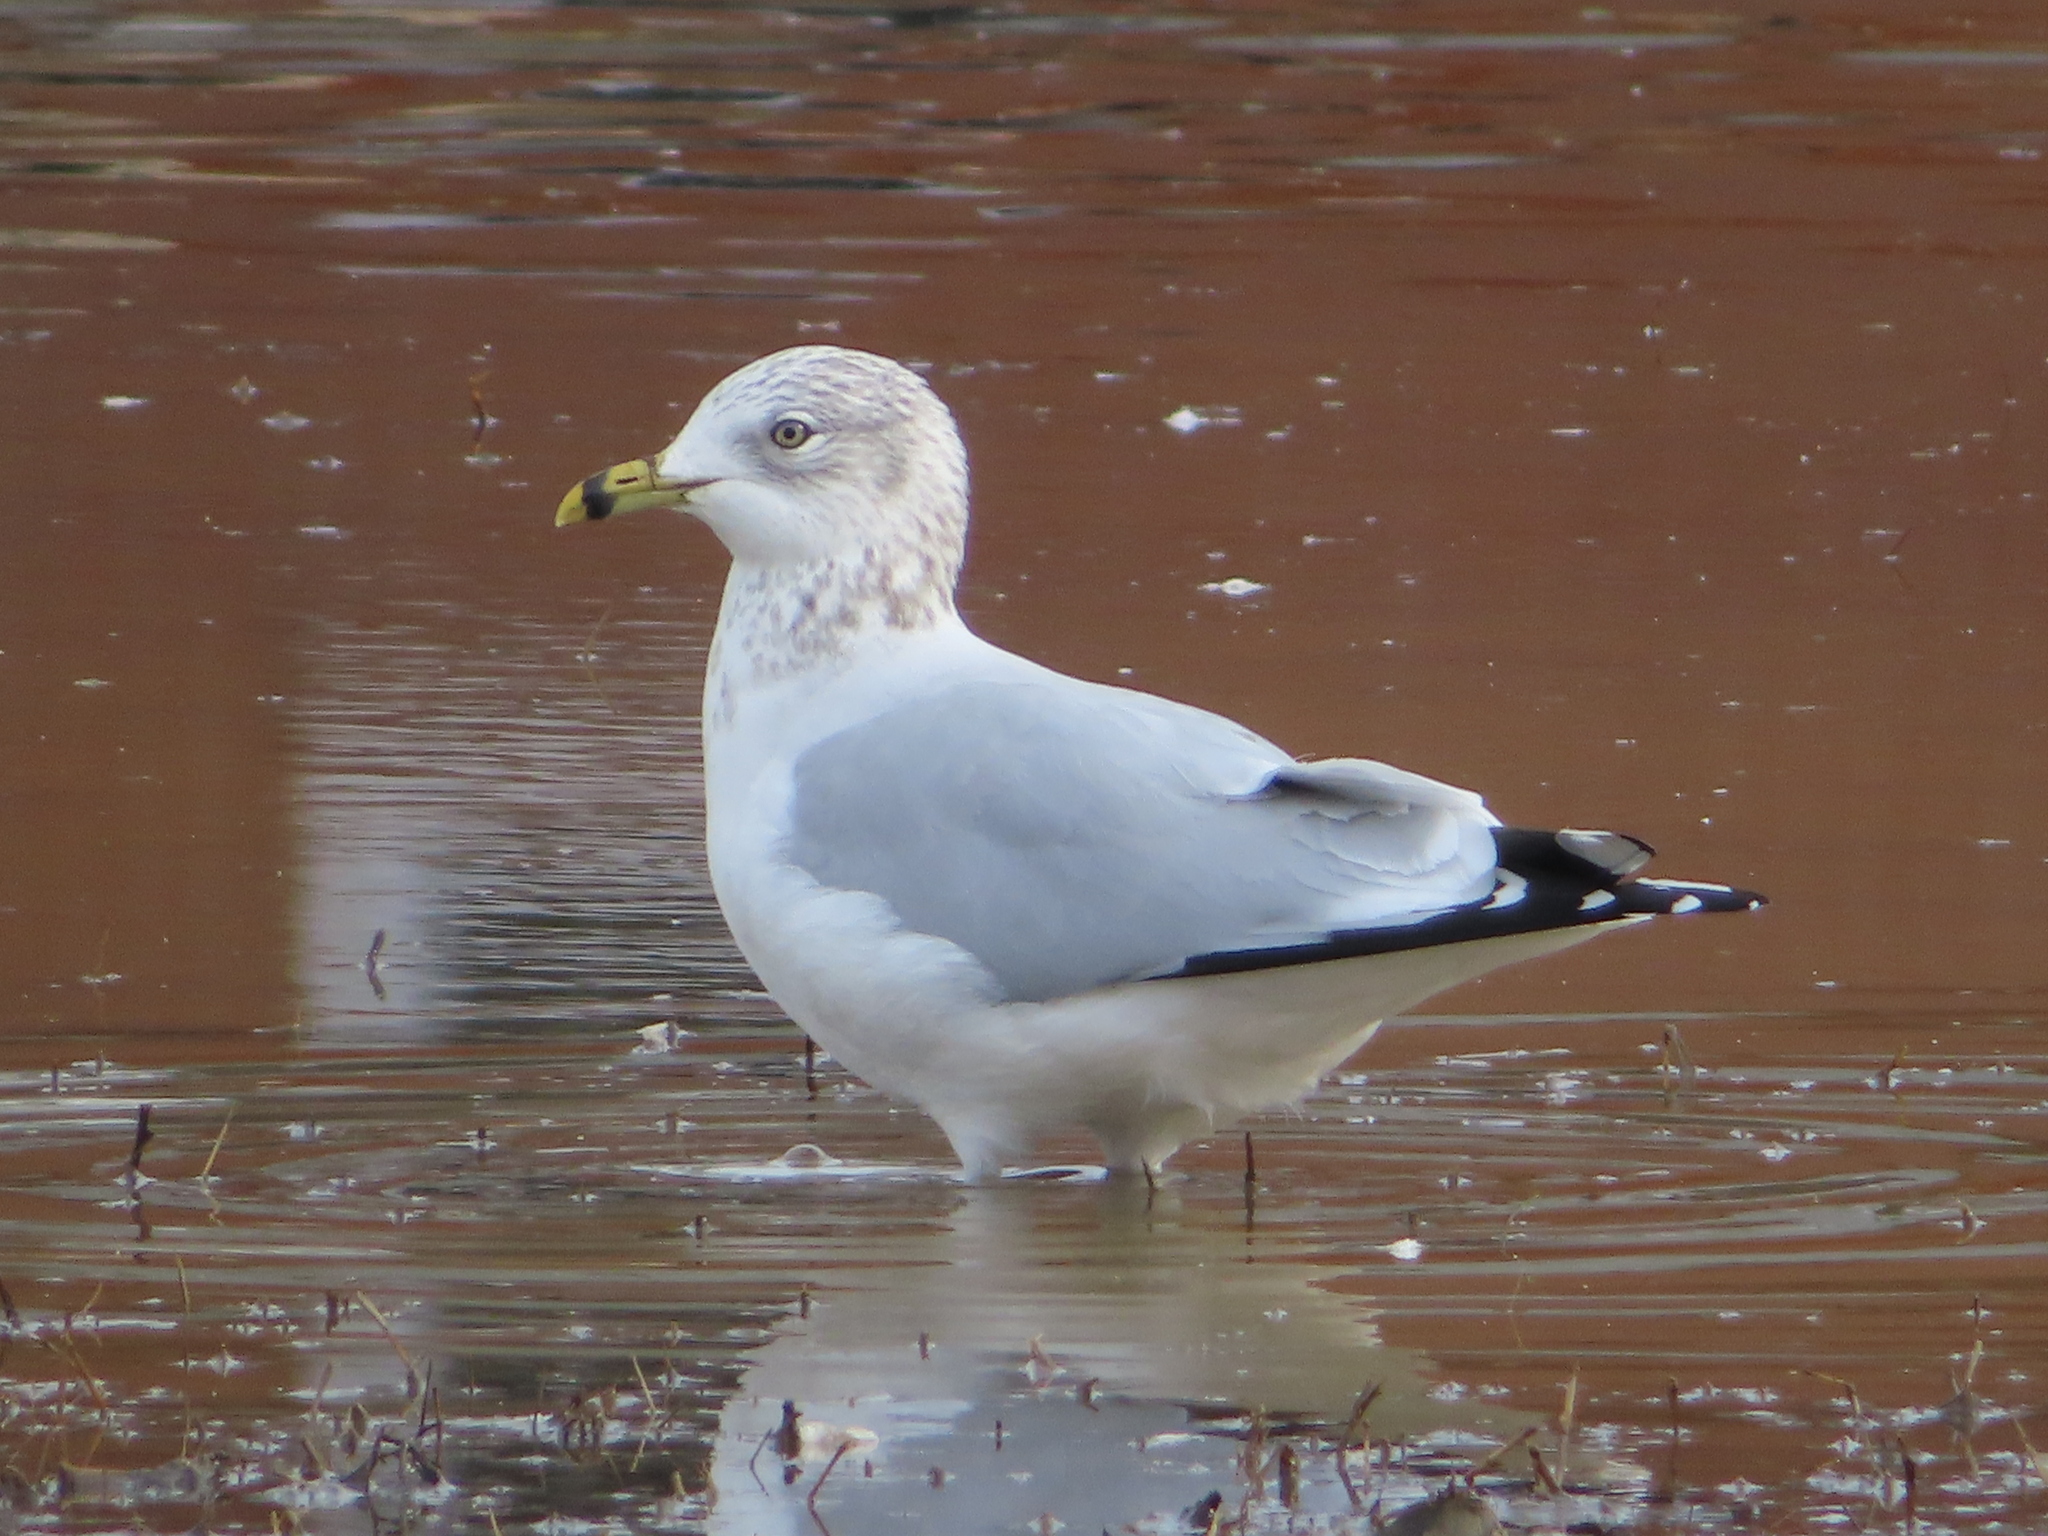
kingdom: Animalia
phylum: Chordata
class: Aves
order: Charadriiformes
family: Laridae
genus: Larus
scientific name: Larus delawarensis
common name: Ring-billed gull
